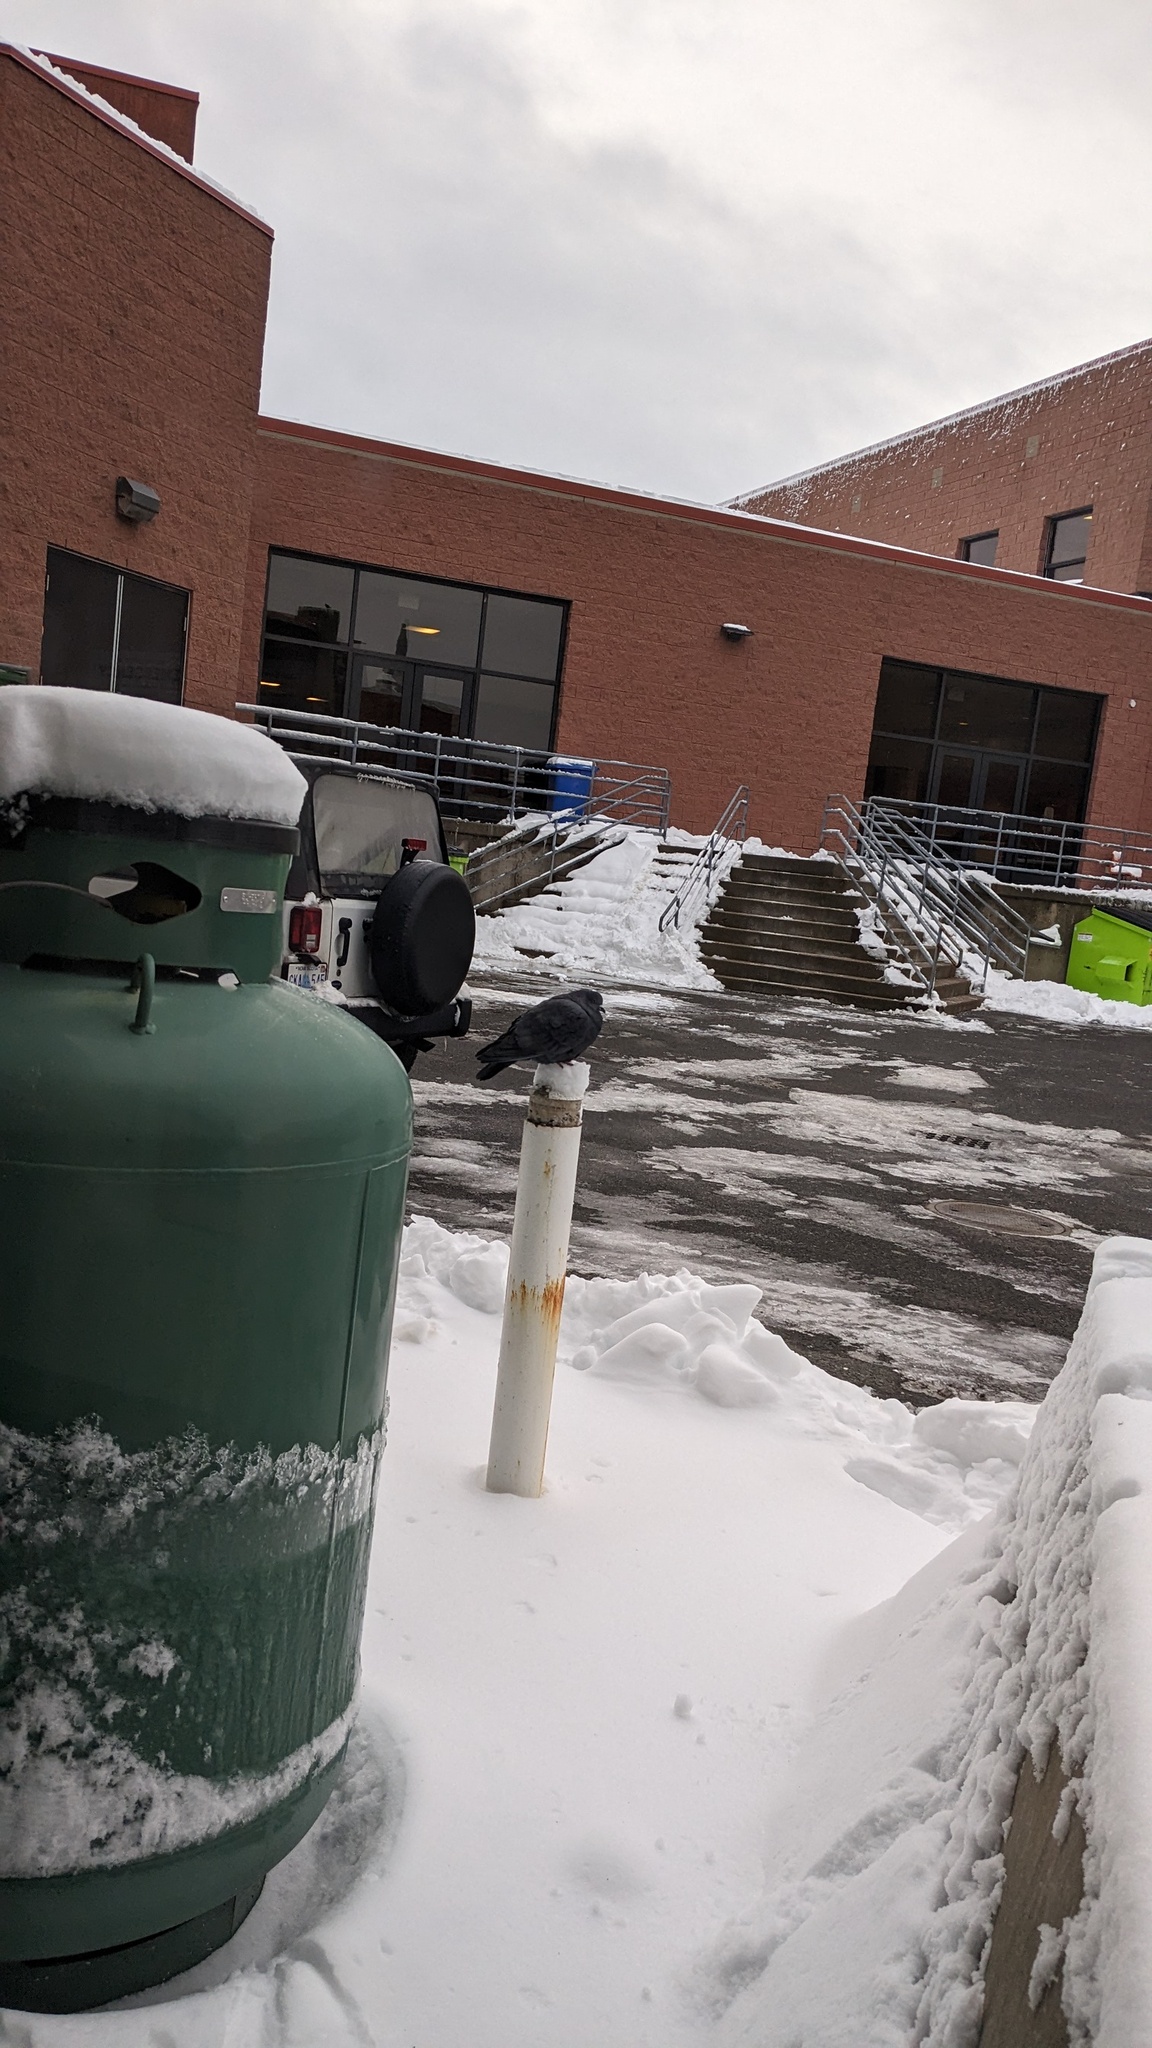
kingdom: Animalia
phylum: Chordata
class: Aves
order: Columbiformes
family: Columbidae
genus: Columba
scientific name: Columba livia
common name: Rock pigeon
